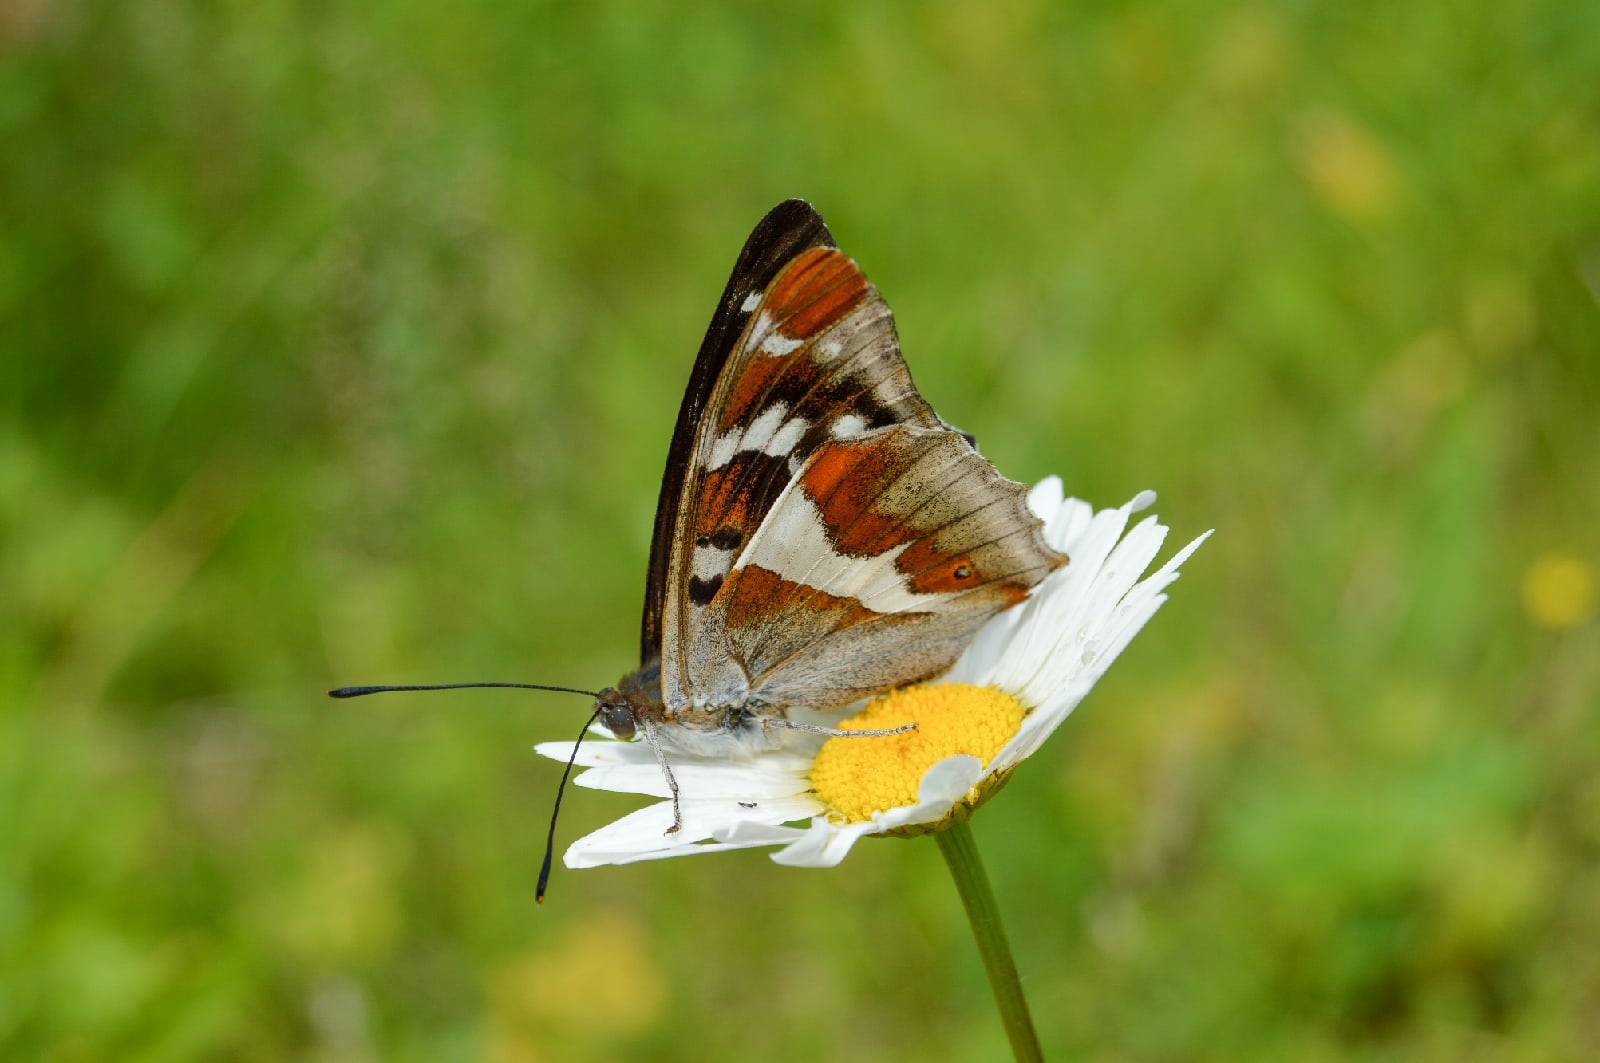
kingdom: Animalia
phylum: Arthropoda
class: Insecta
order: Lepidoptera
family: Nymphalidae
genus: Apatura
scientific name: Apatura iris
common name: Purple emperor
